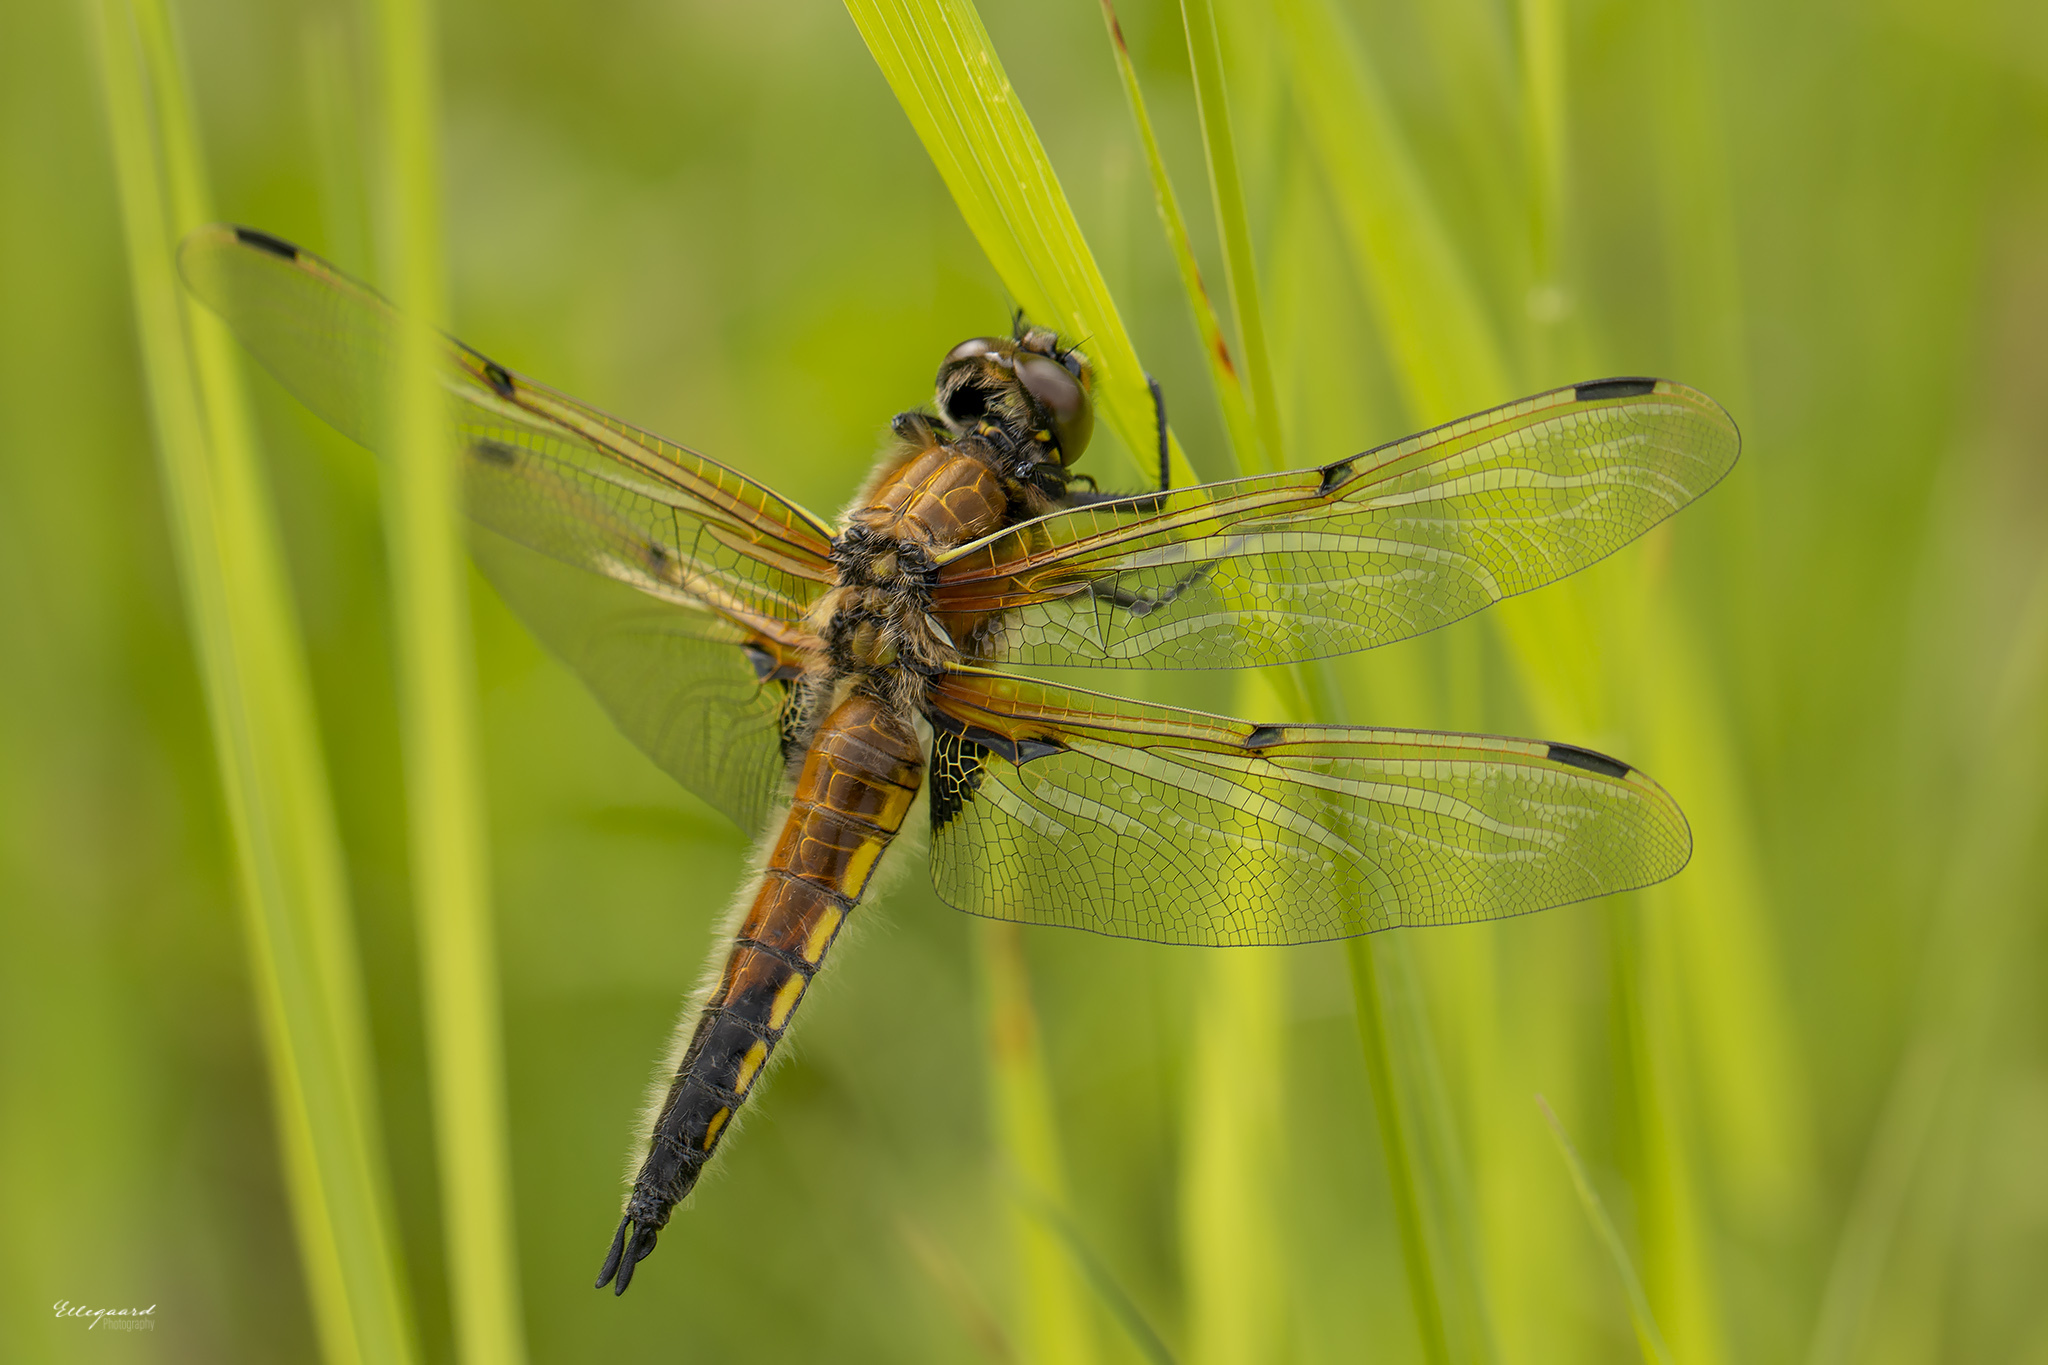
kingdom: Animalia
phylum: Arthropoda
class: Insecta
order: Odonata
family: Libellulidae
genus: Libellula
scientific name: Libellula quadrimaculata
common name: Four-spotted chaser
